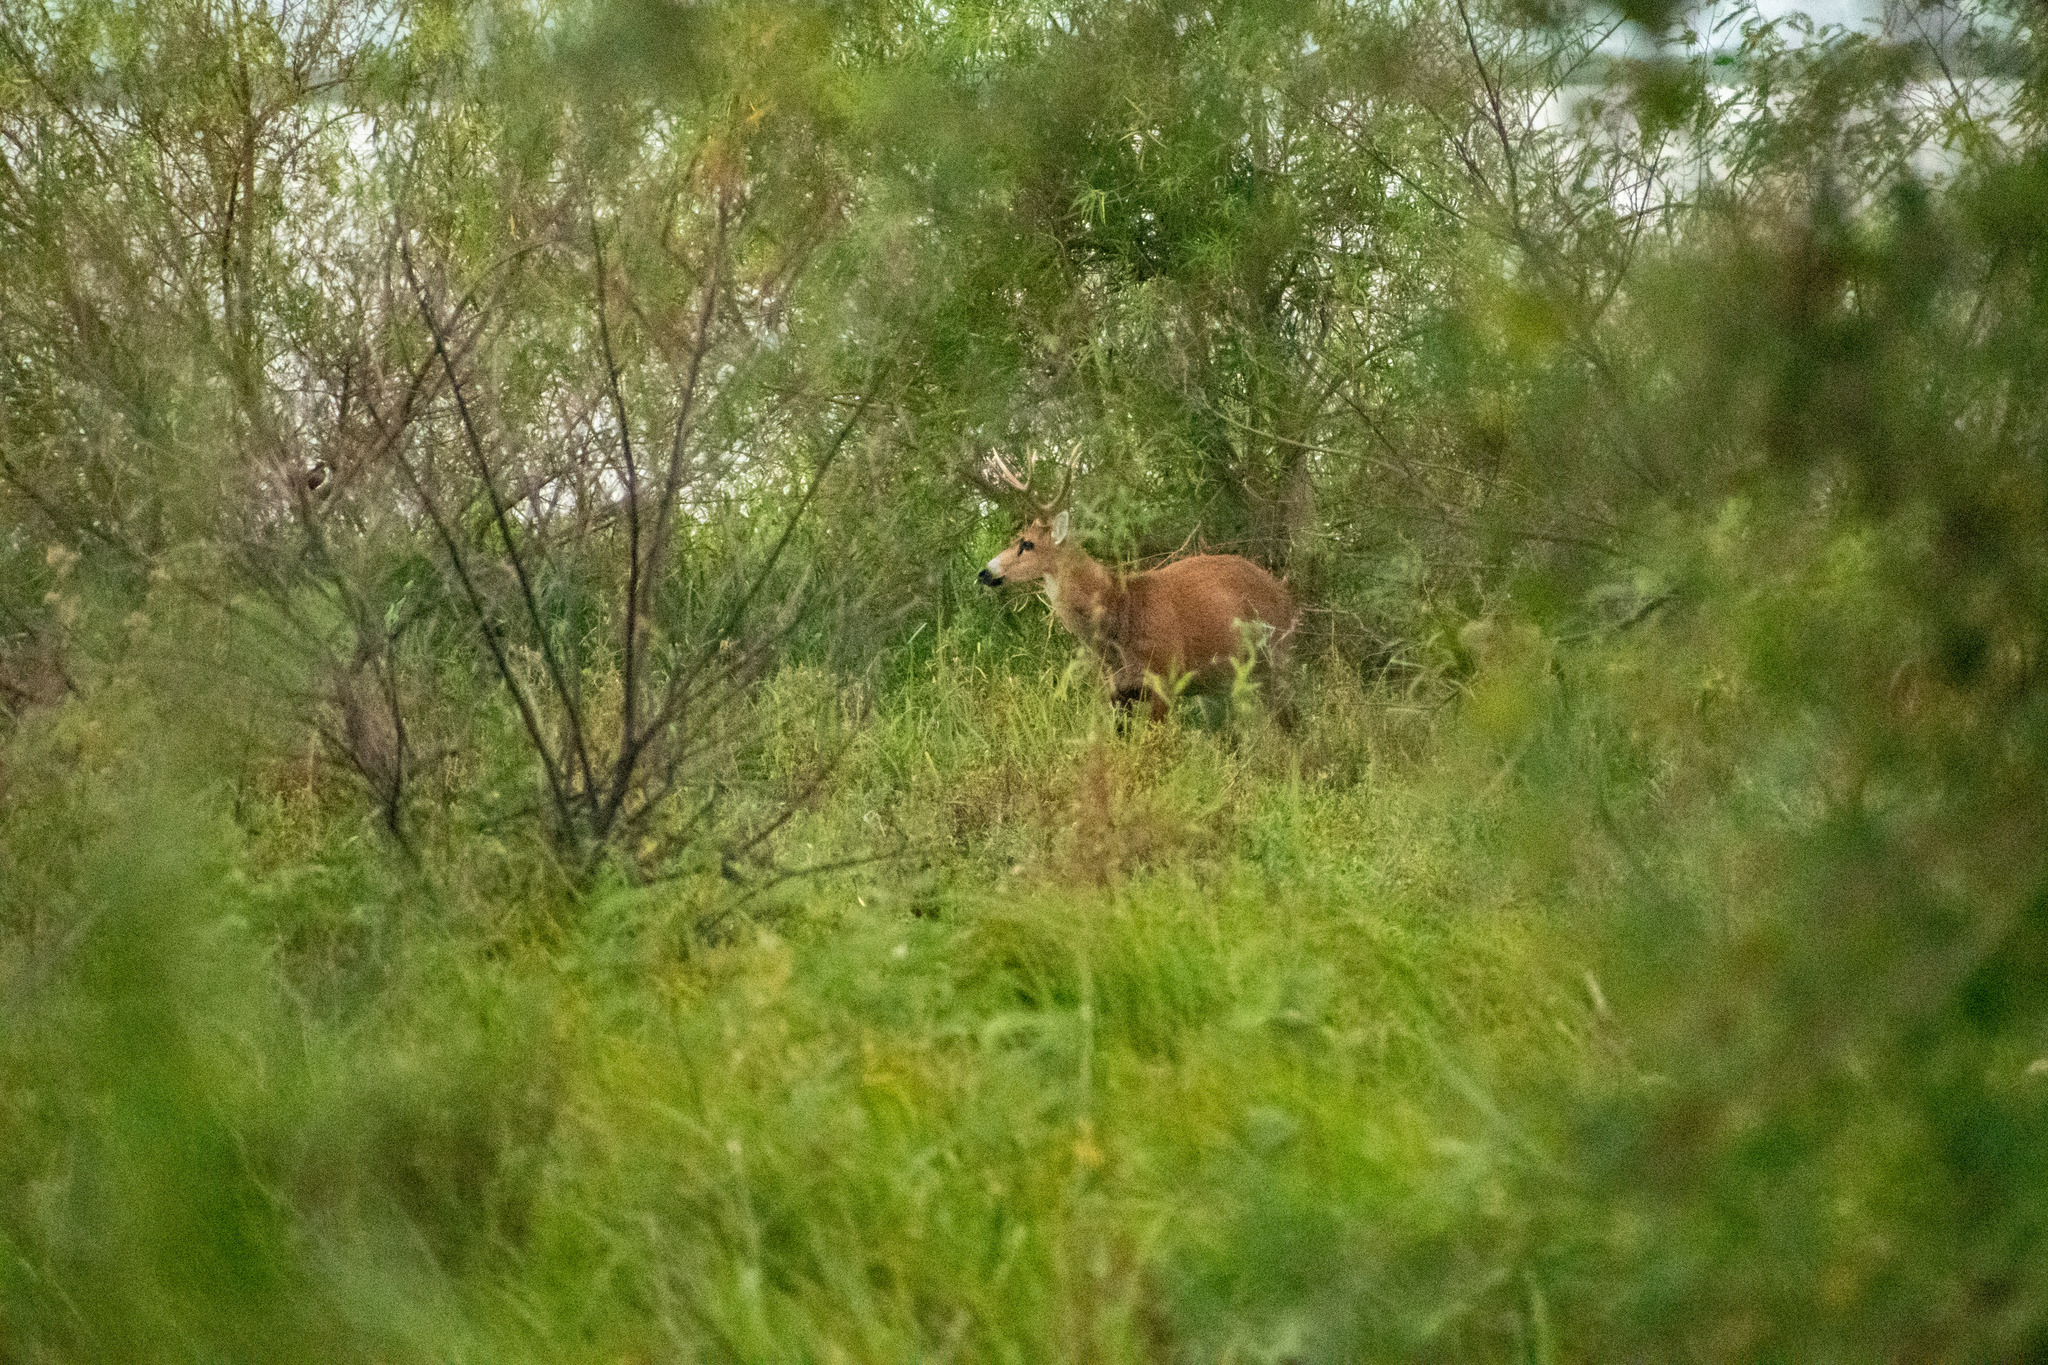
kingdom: Animalia
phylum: Chordata
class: Mammalia
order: Artiodactyla
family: Cervidae
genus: Blastocerus
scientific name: Blastocerus dichotomus
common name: Marsh deer
